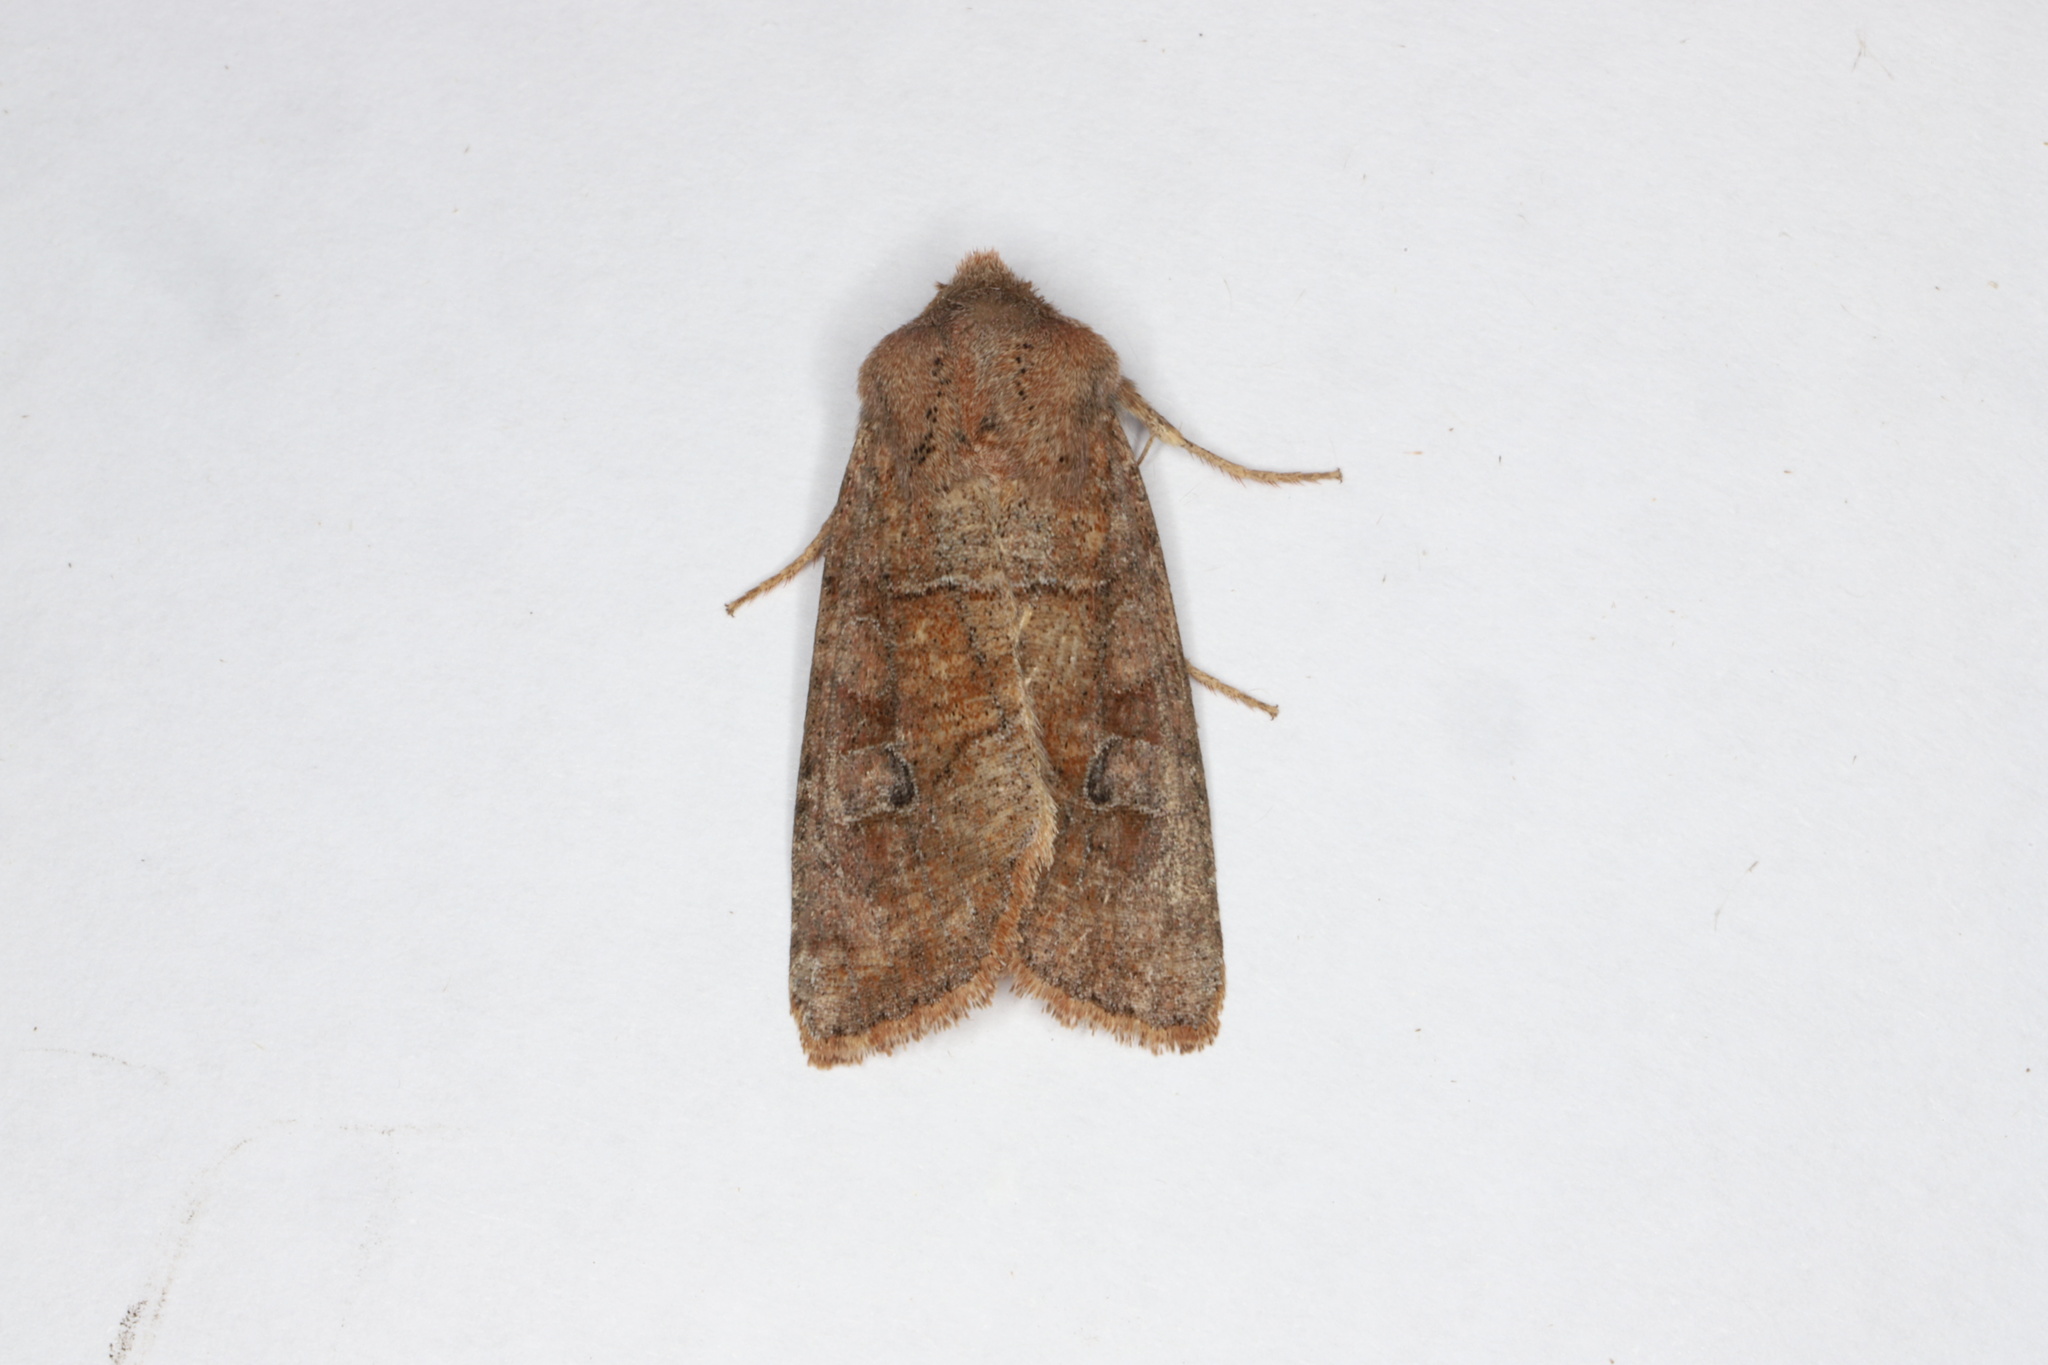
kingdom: Animalia
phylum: Arthropoda
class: Insecta
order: Lepidoptera
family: Noctuidae
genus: Crocigrapha
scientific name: Crocigrapha normani
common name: Norman's quaker
